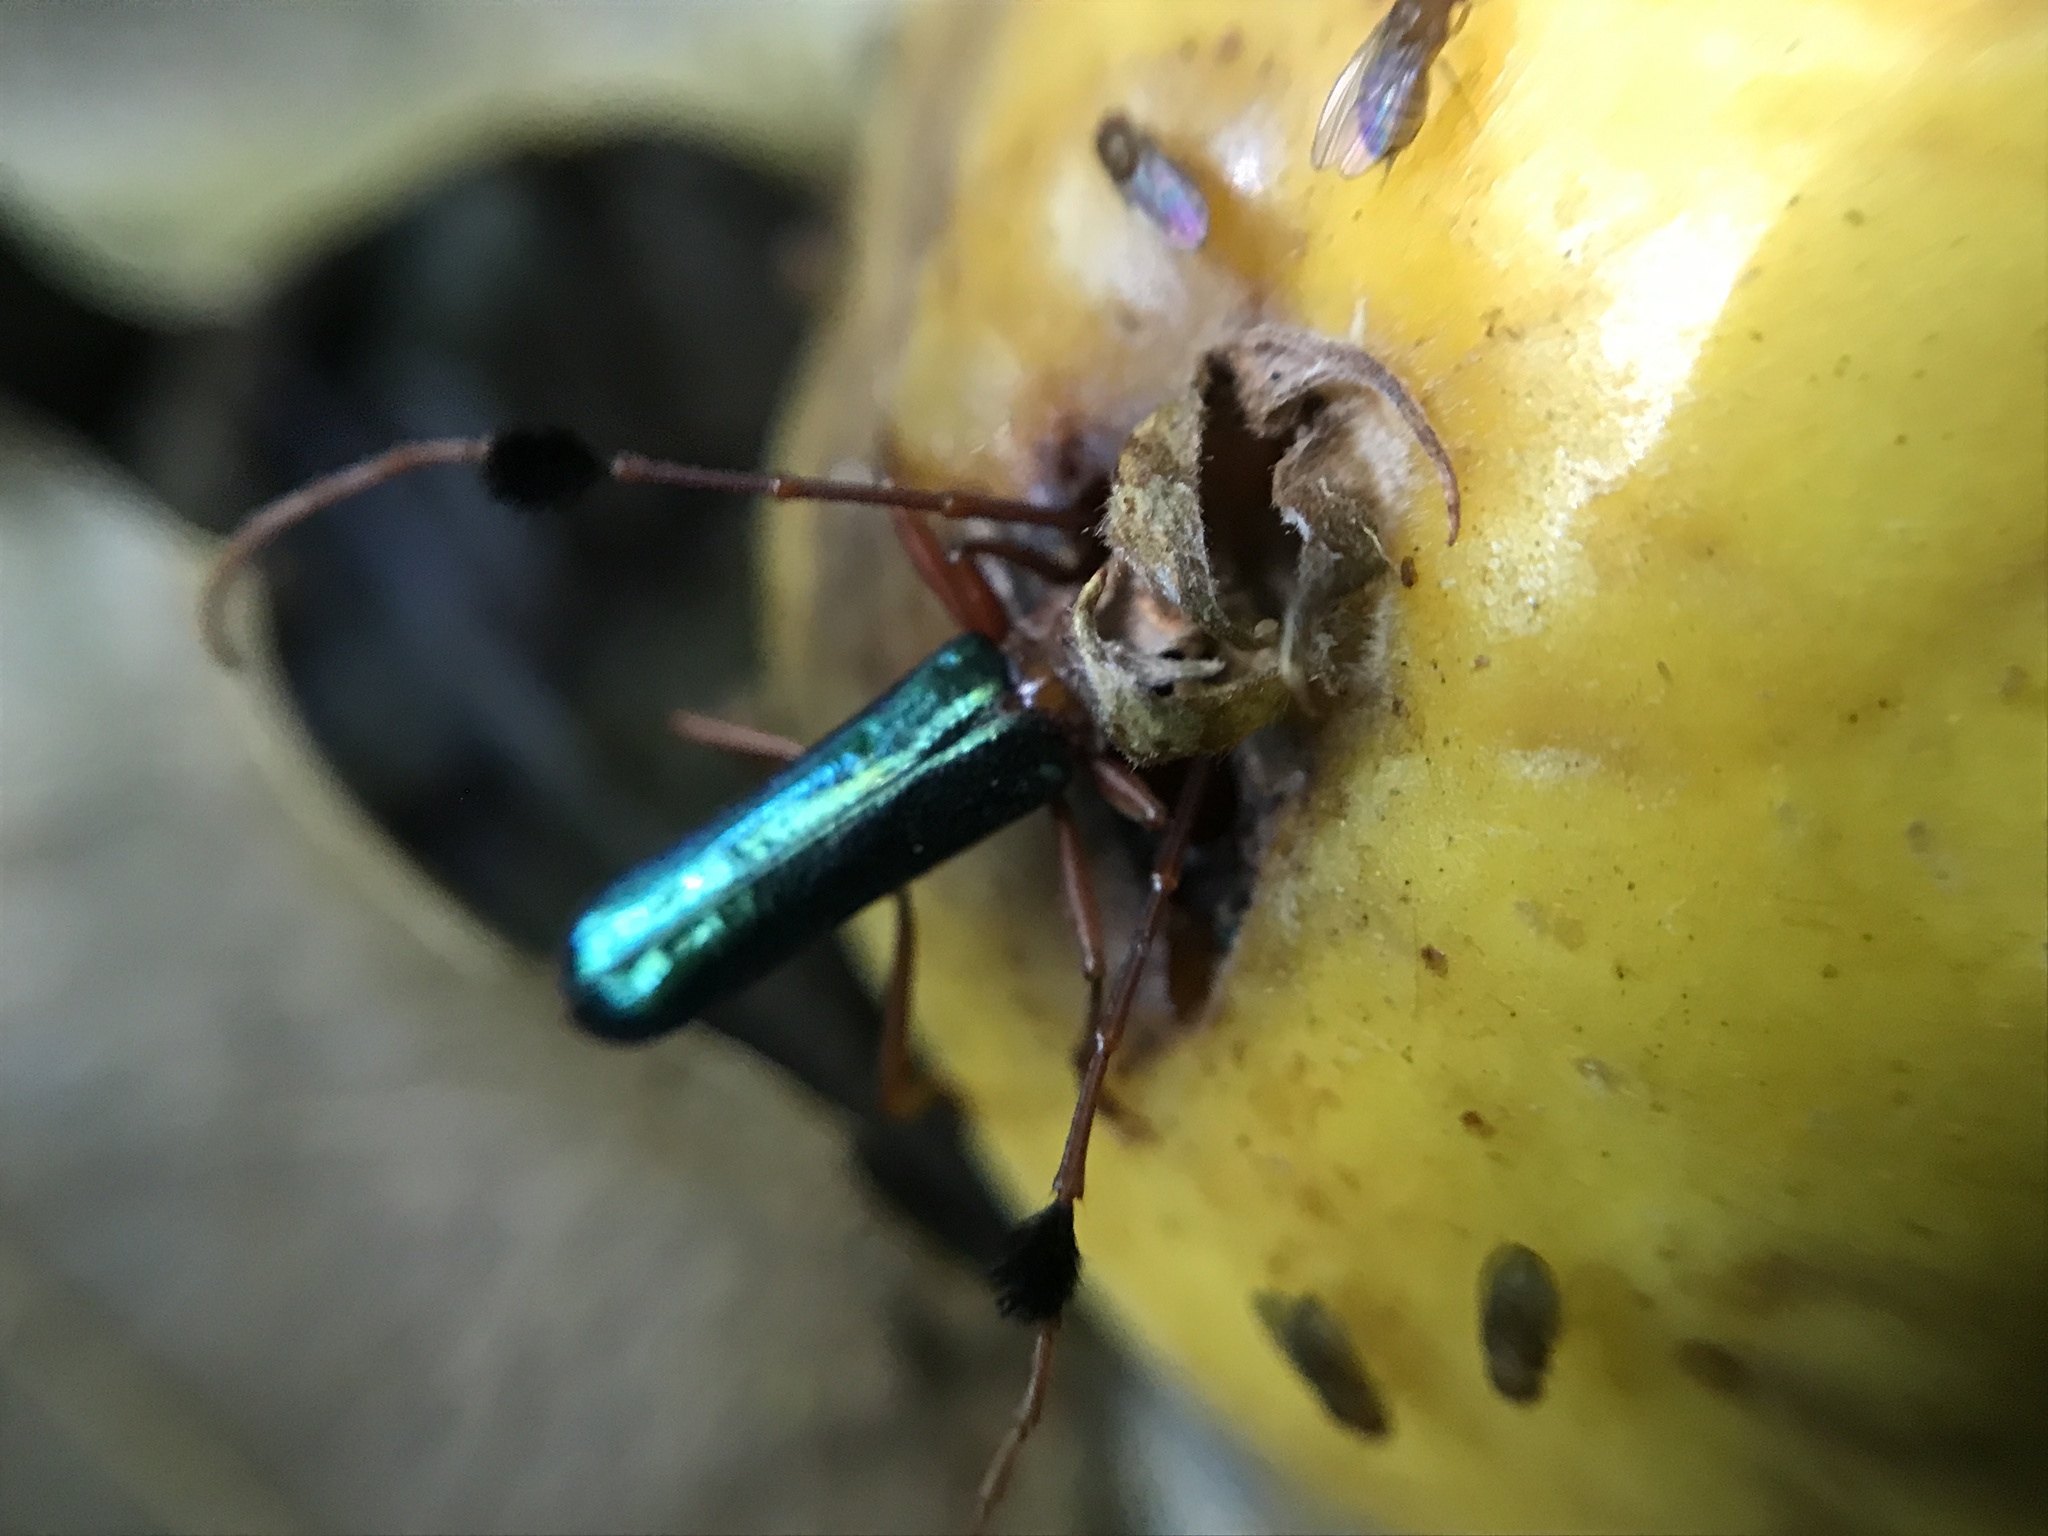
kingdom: Animalia
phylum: Arthropoda
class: Insecta
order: Coleoptera
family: Cerambycidae
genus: Compsocerus
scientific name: Compsocerus violaceus
